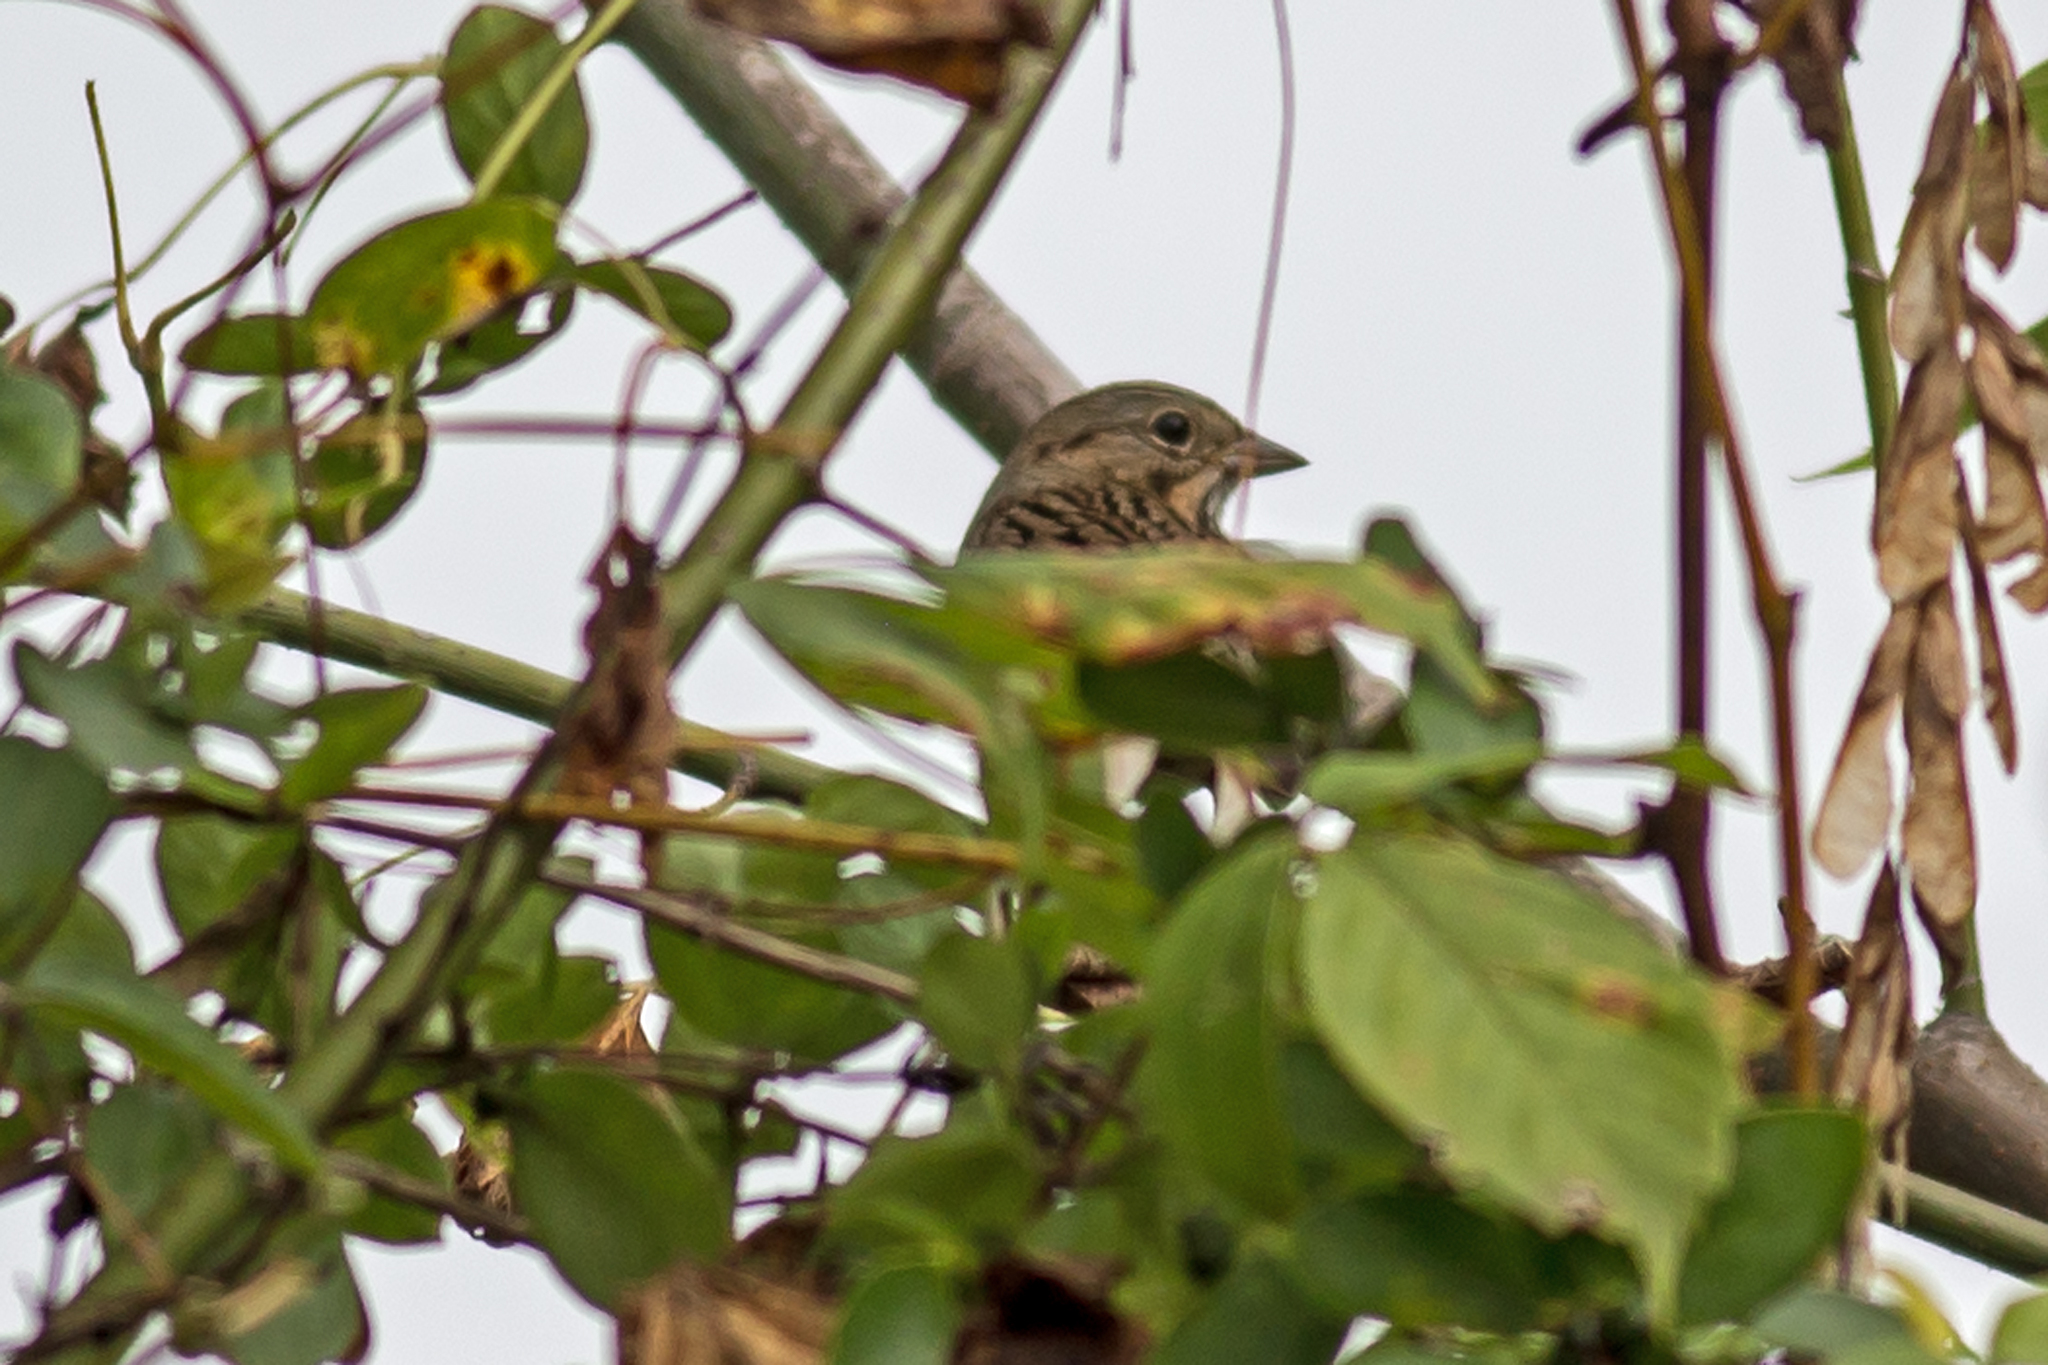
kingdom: Animalia
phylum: Chordata
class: Aves
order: Passeriformes
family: Passerellidae
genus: Melospiza
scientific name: Melospiza lincolnii
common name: Lincoln's sparrow
